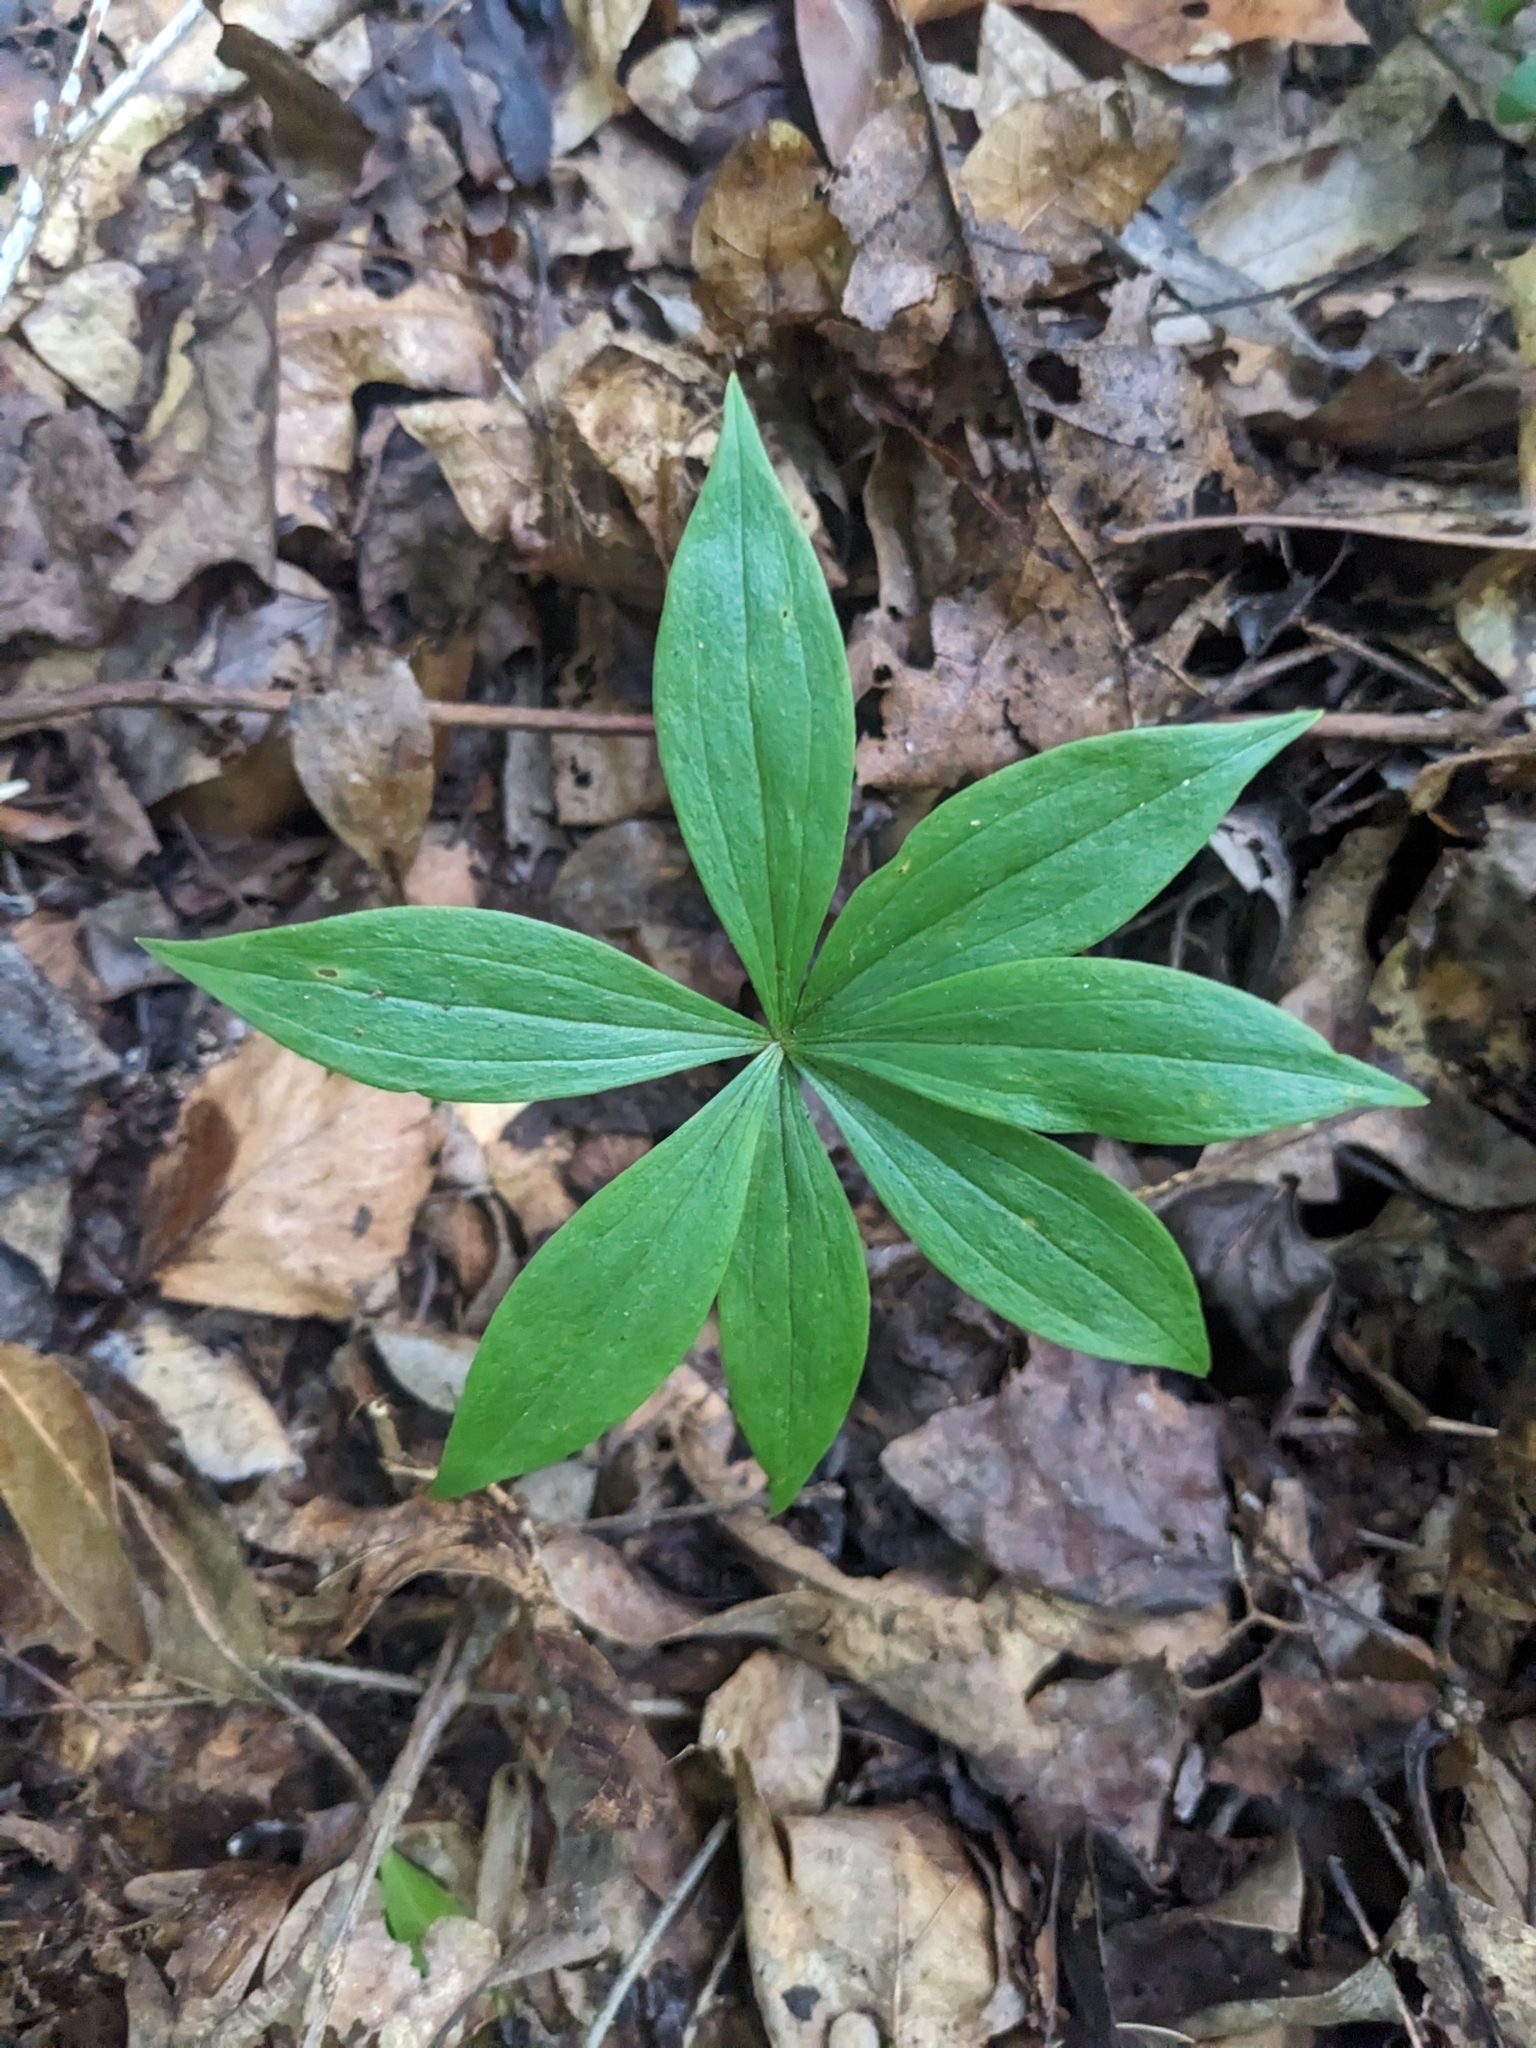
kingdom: Plantae
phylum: Tracheophyta
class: Liliopsida
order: Liliales
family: Liliaceae
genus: Medeola
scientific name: Medeola virginiana
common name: Indian cucumber-root
